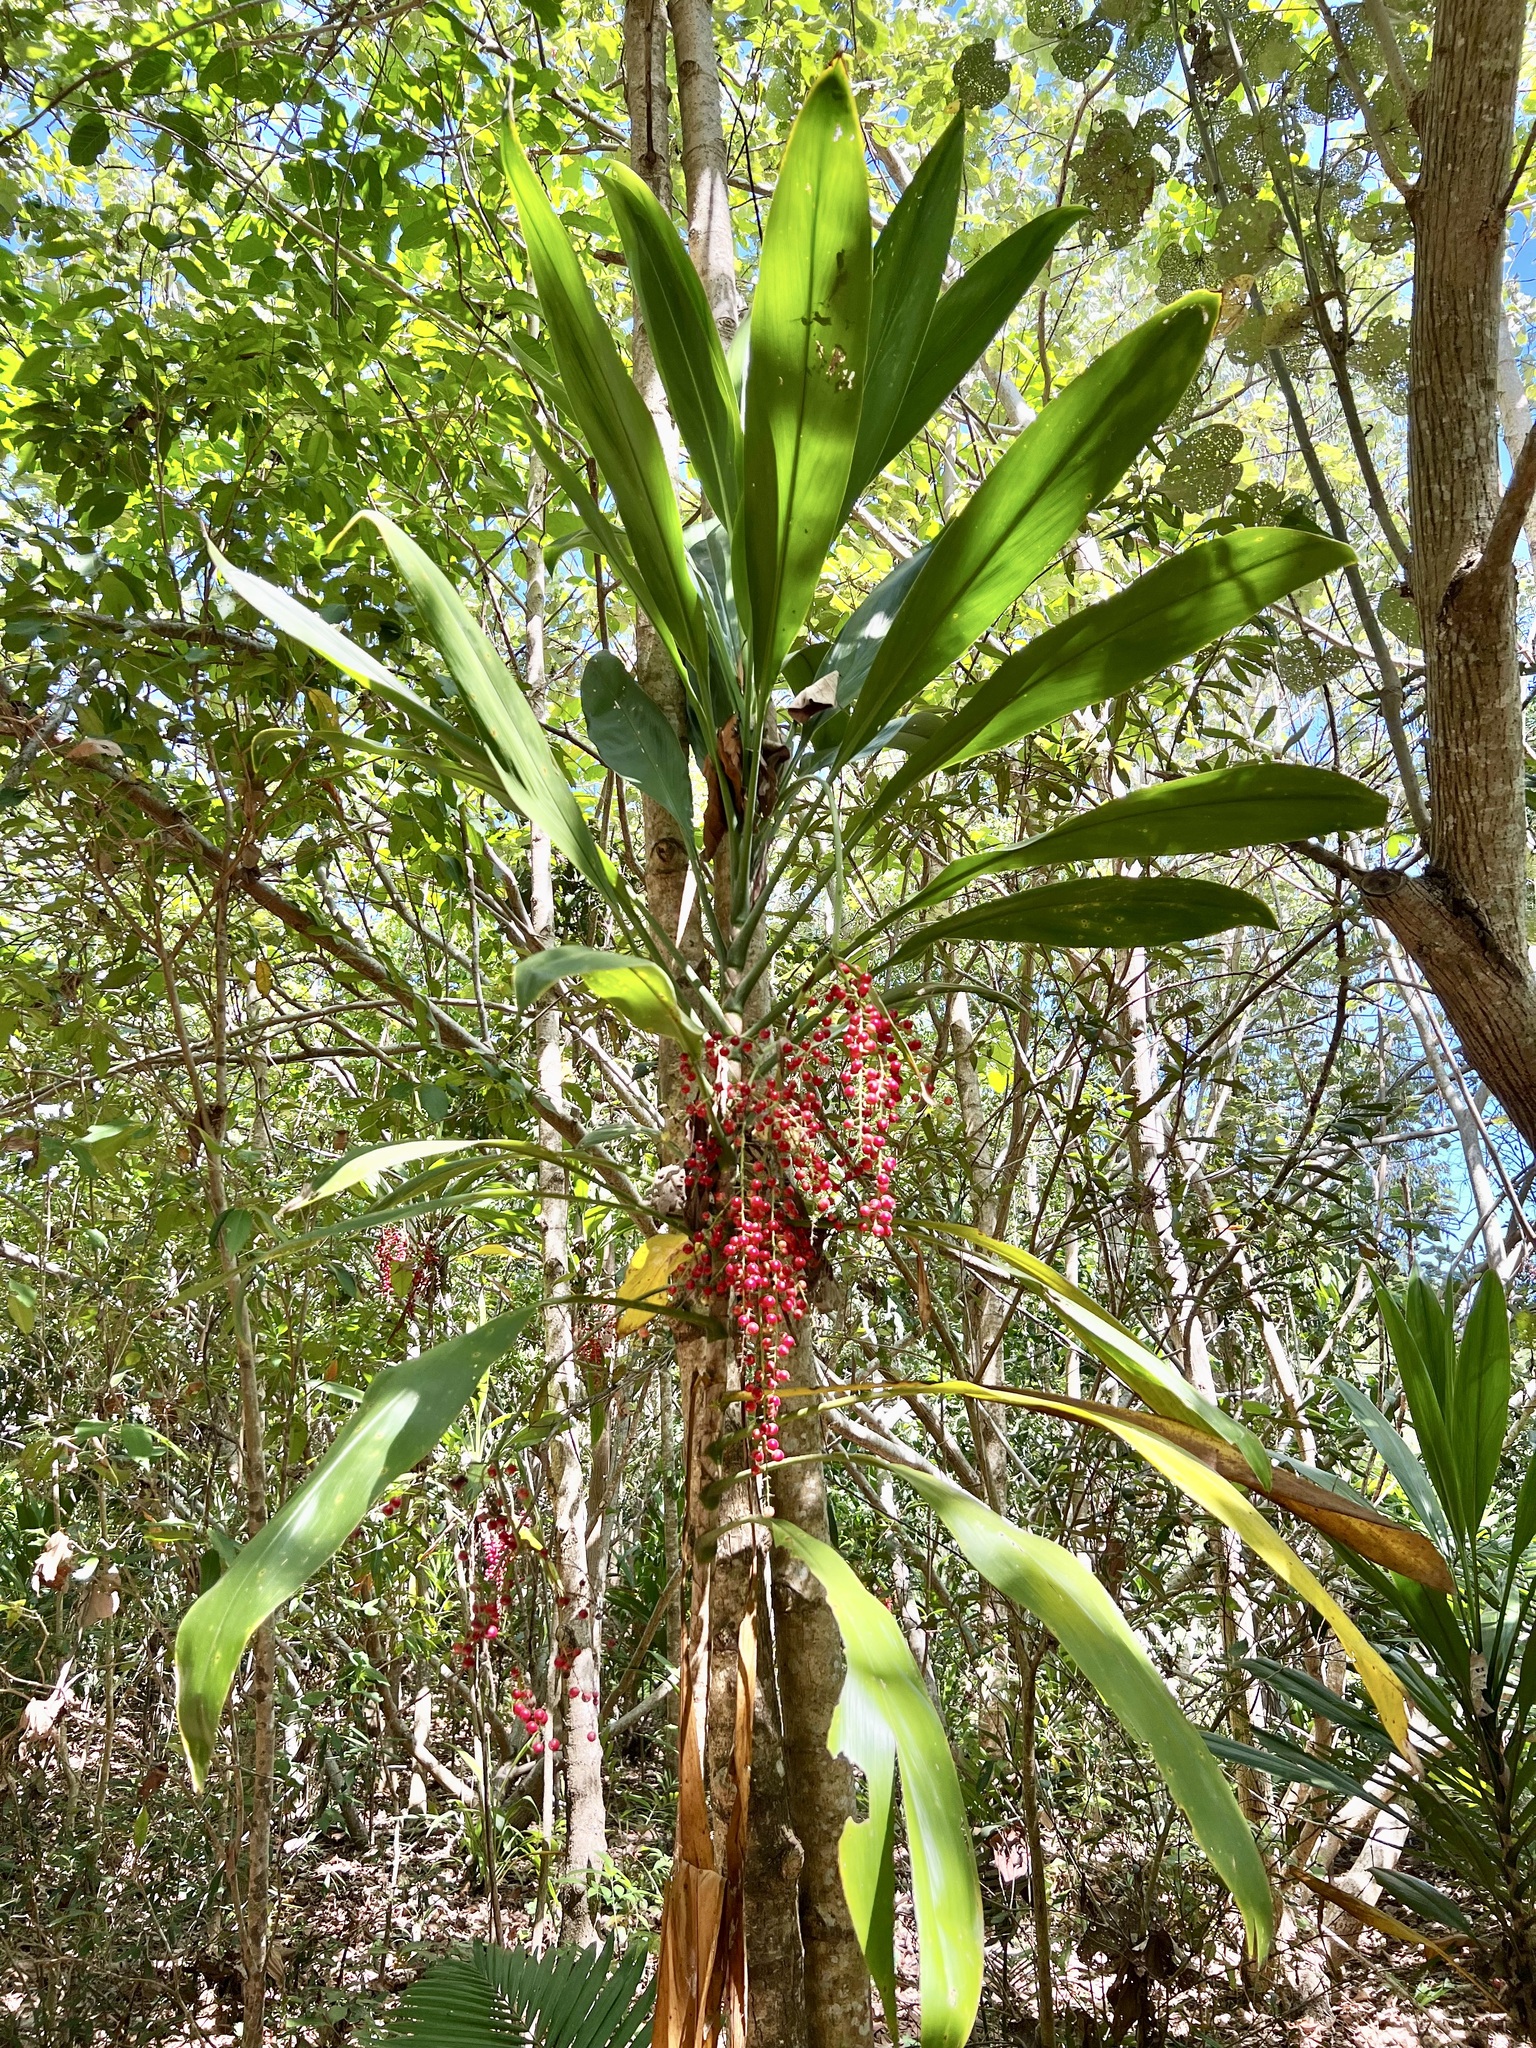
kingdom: Plantae
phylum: Tracheophyta
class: Liliopsida
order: Asparagales
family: Asparagaceae
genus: Cordyline
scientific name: Cordyline manners-suttoniae
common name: Giant palm-lily
